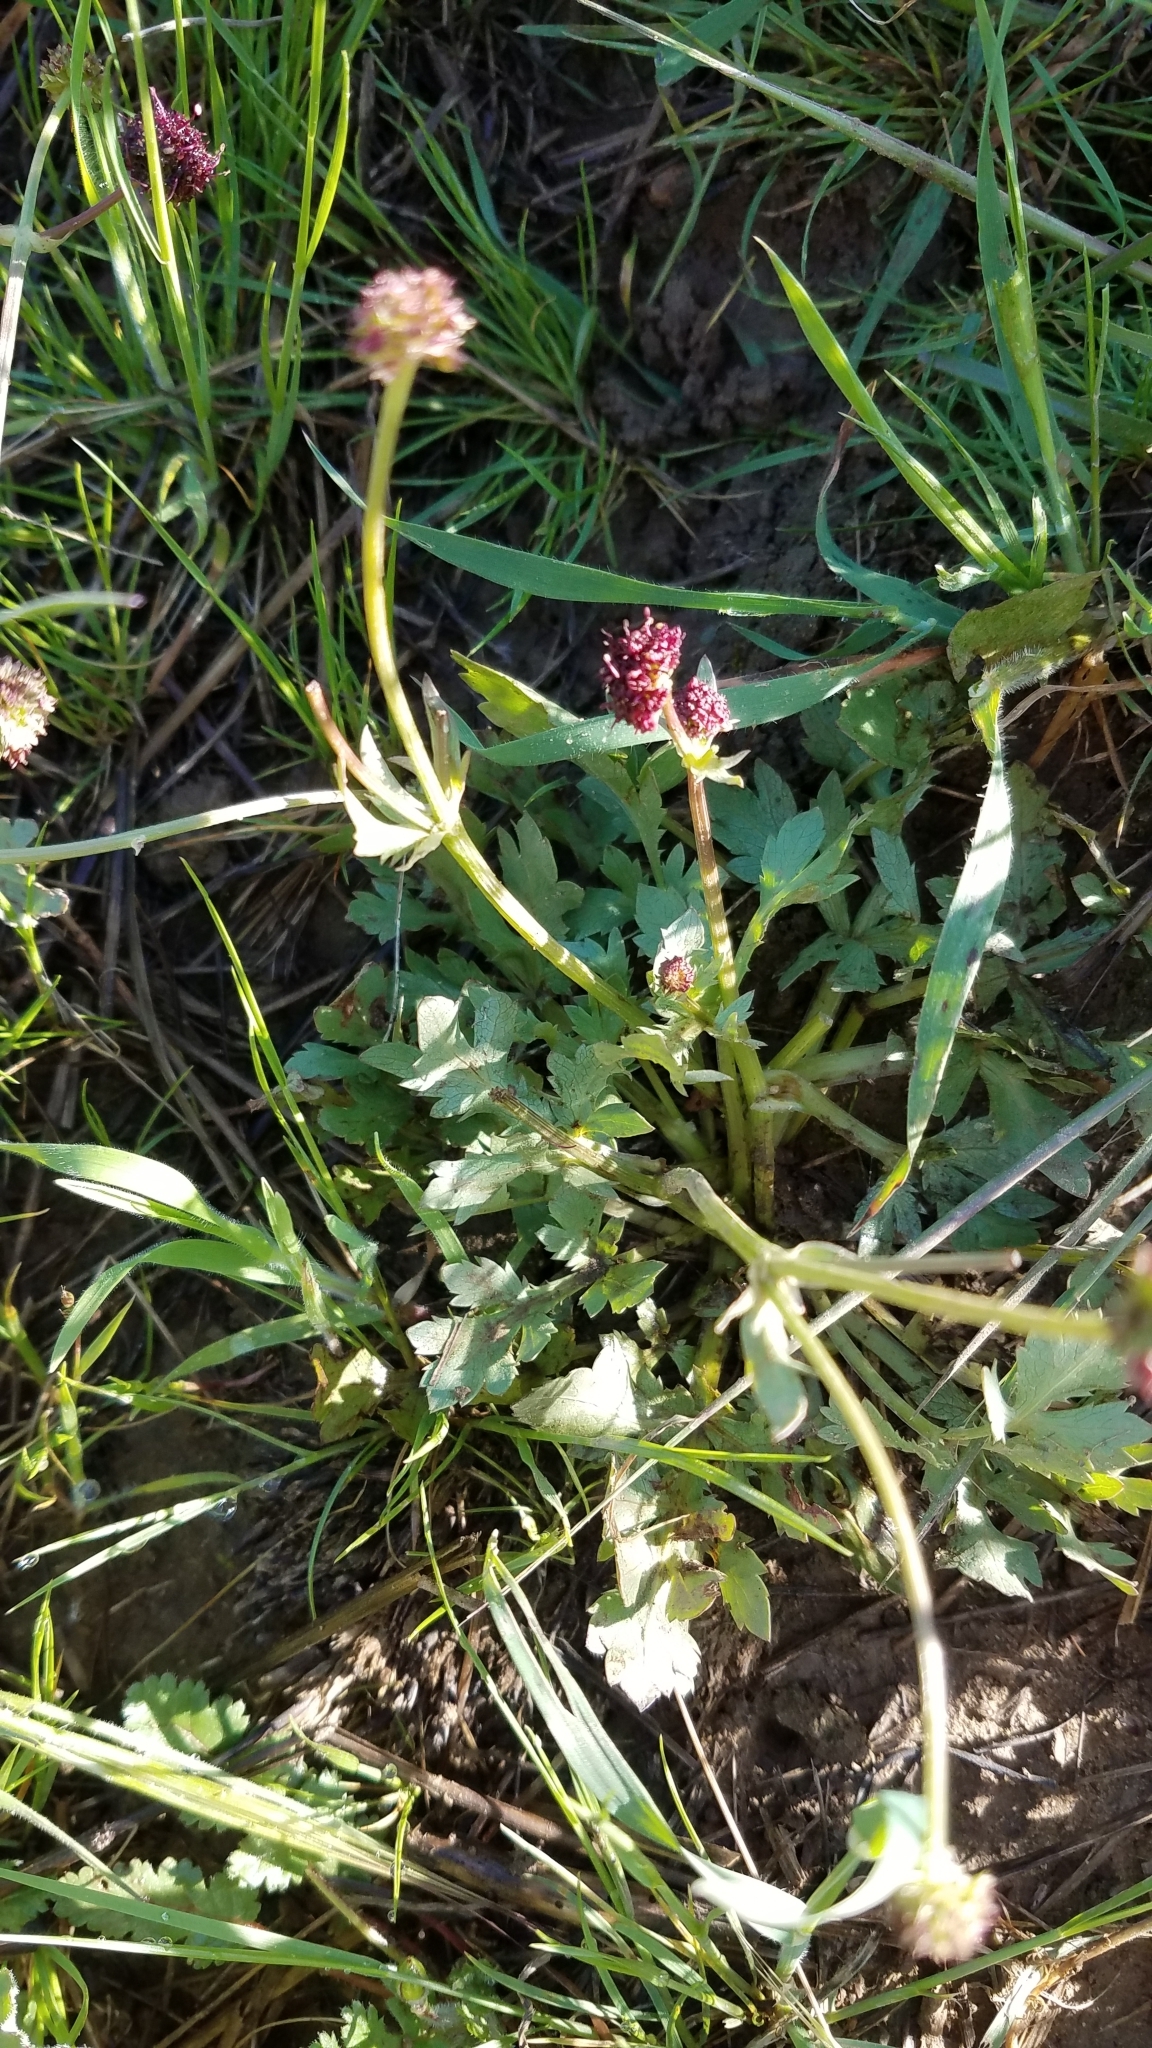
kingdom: Plantae
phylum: Tracheophyta
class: Magnoliopsida
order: Apiales
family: Apiaceae
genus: Sanicula
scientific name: Sanicula bipinnatifida
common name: Shoe-buttons
